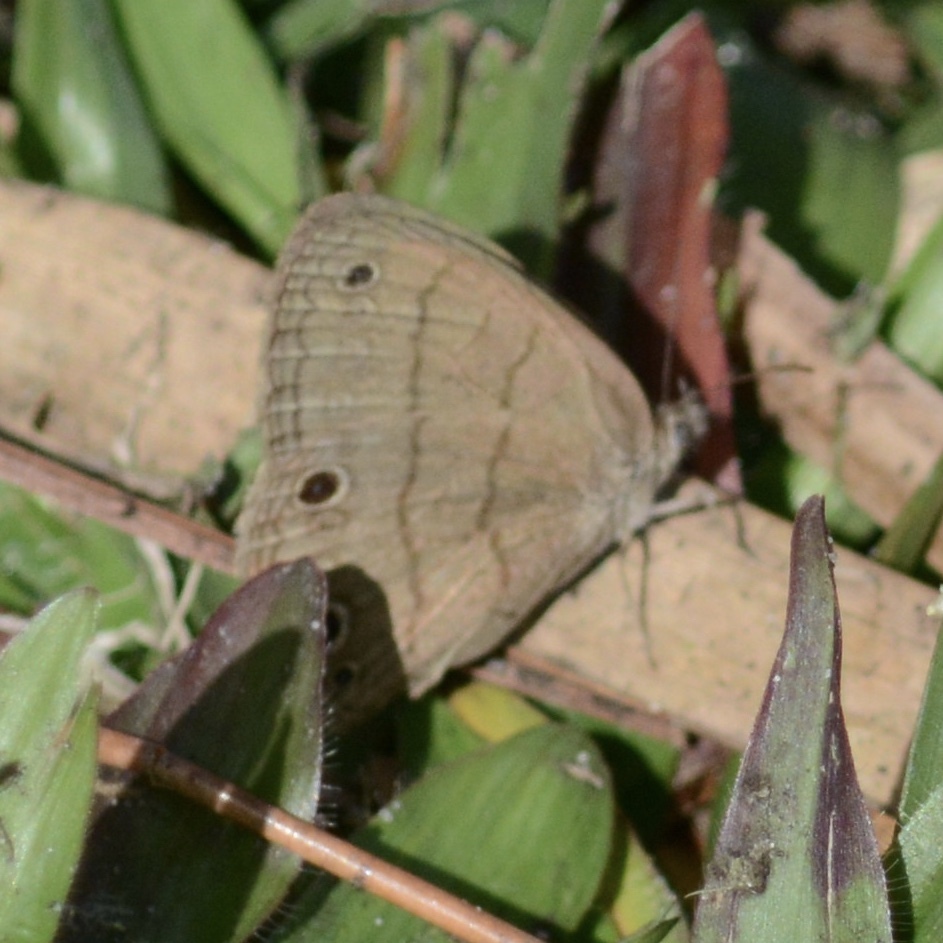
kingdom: Animalia
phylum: Arthropoda
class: Insecta
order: Lepidoptera
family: Nymphalidae
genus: Hermeuptychia
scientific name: Hermeuptychia hermes
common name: Hermes satyr
